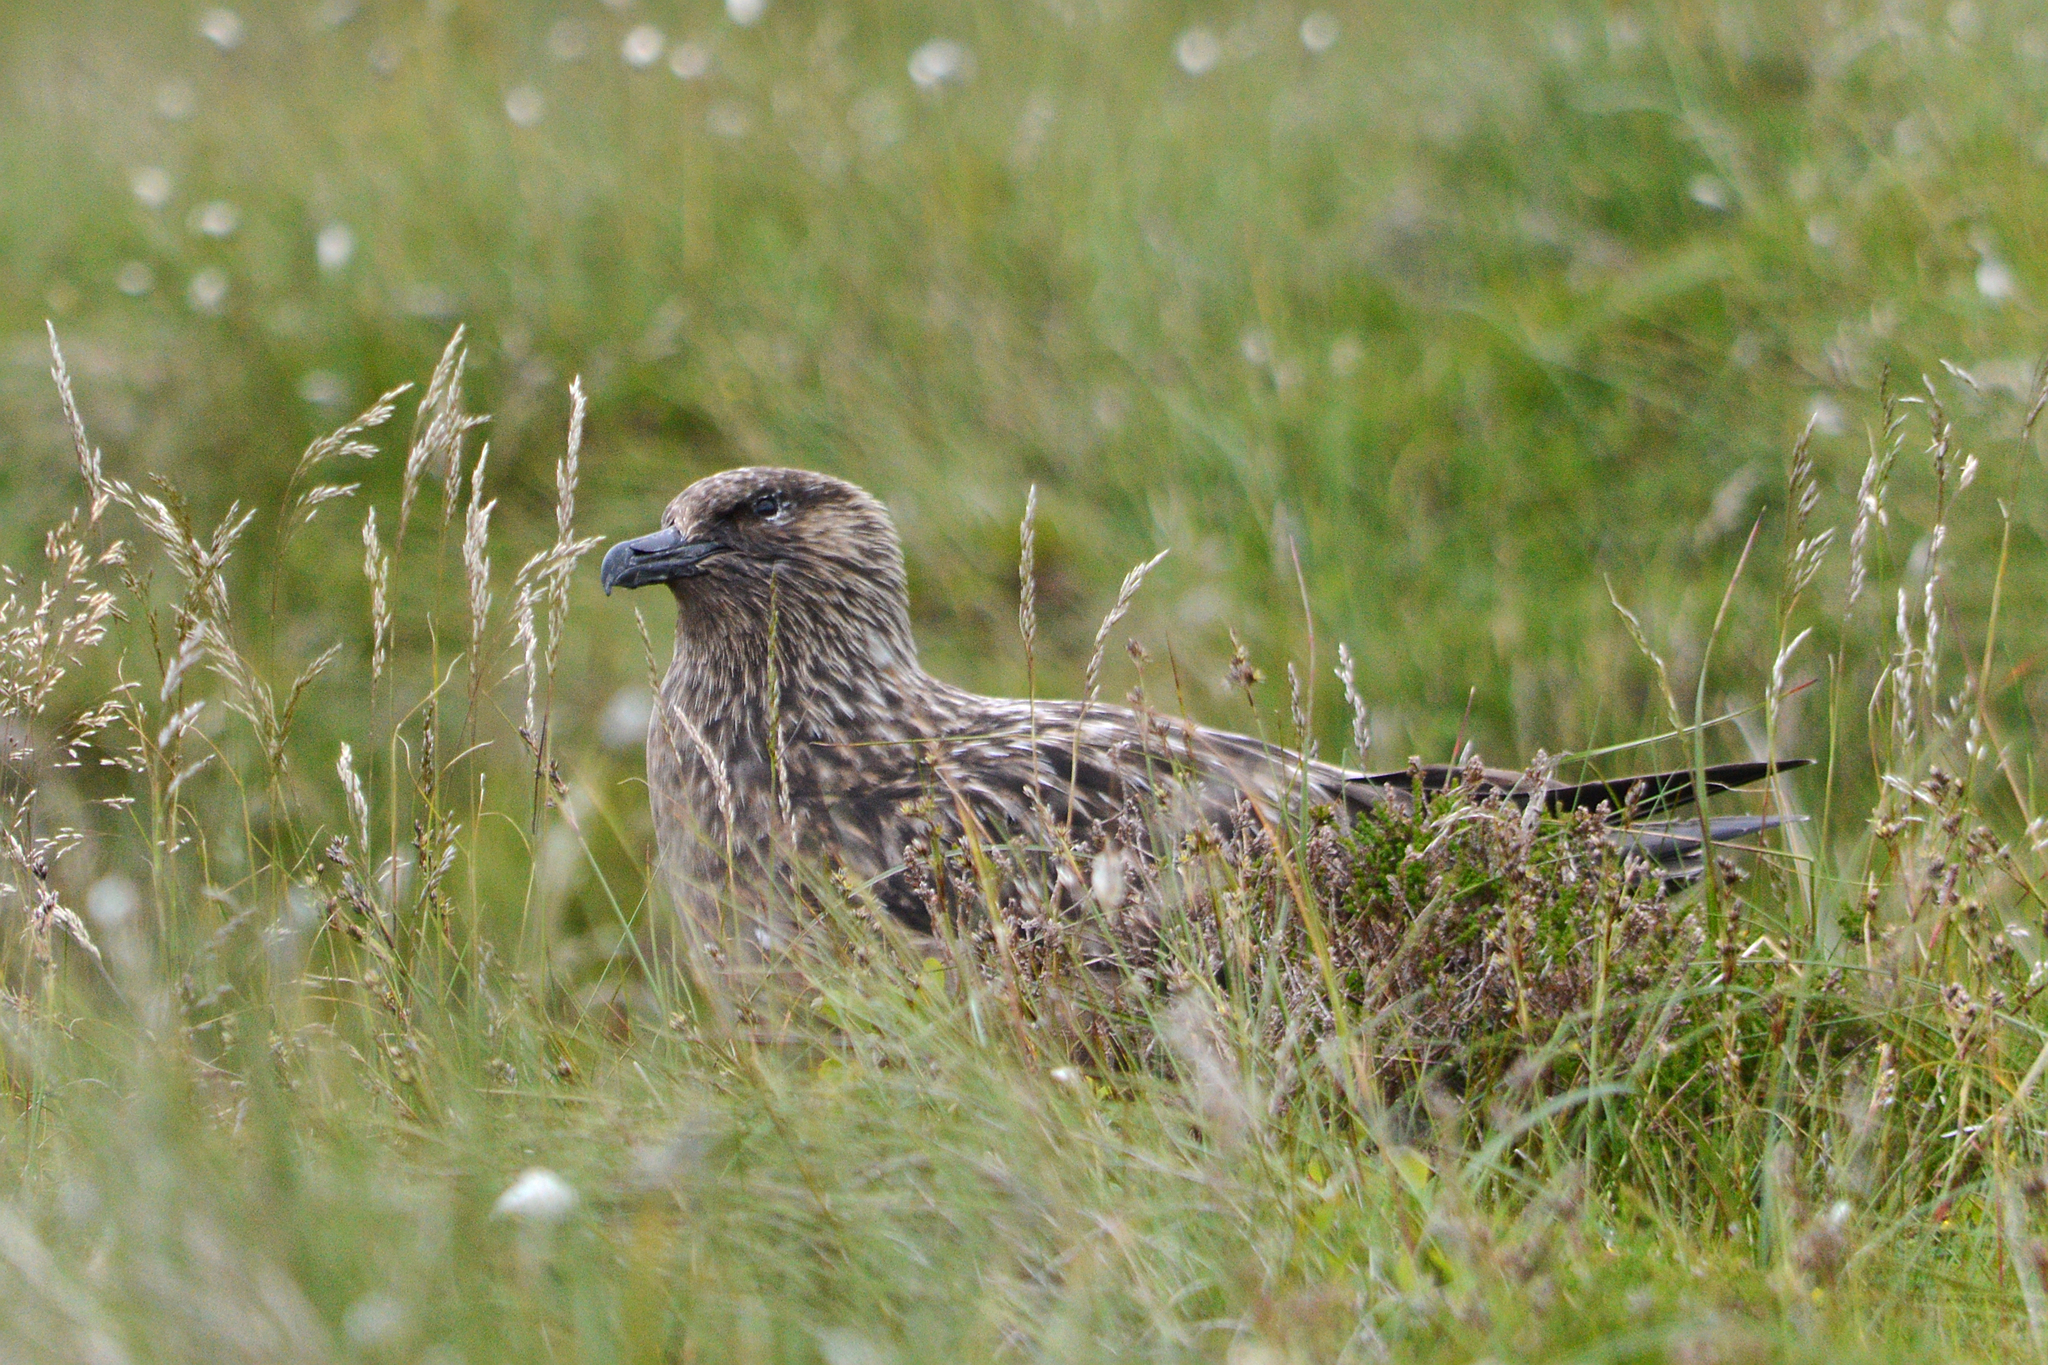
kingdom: Animalia
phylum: Chordata
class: Aves
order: Charadriiformes
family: Stercorariidae
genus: Stercorarius
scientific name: Stercorarius skua
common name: Great skua
